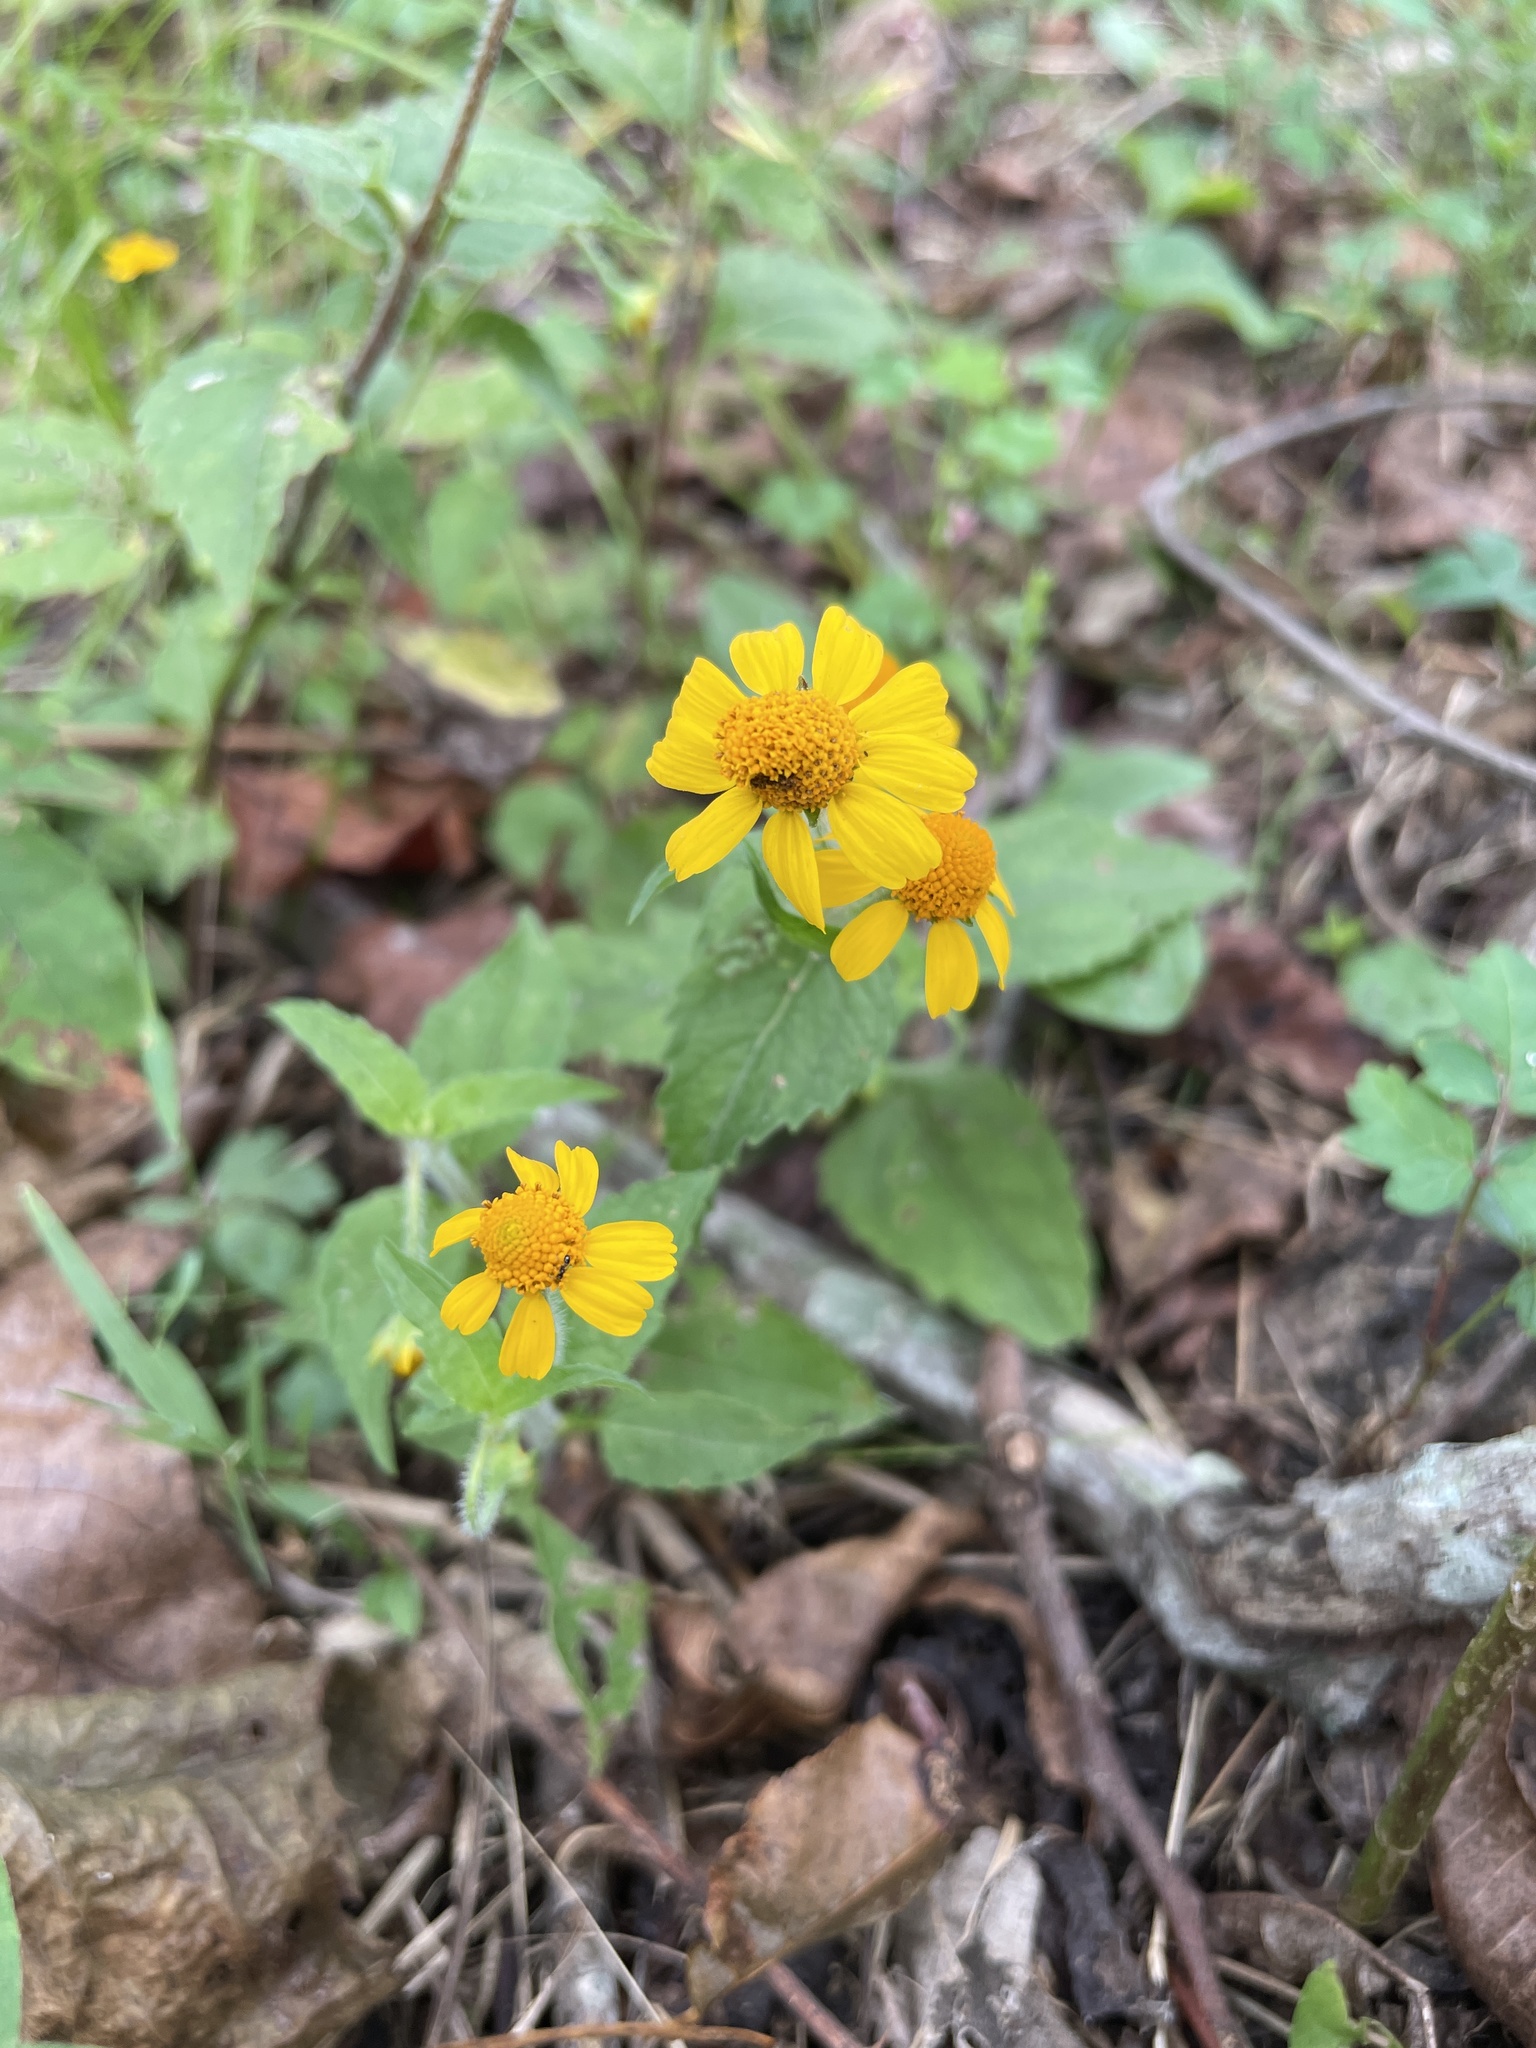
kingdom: Plantae
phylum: Tracheophyta
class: Magnoliopsida
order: Asterales
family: Asteraceae
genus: Acmella
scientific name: Acmella repens
